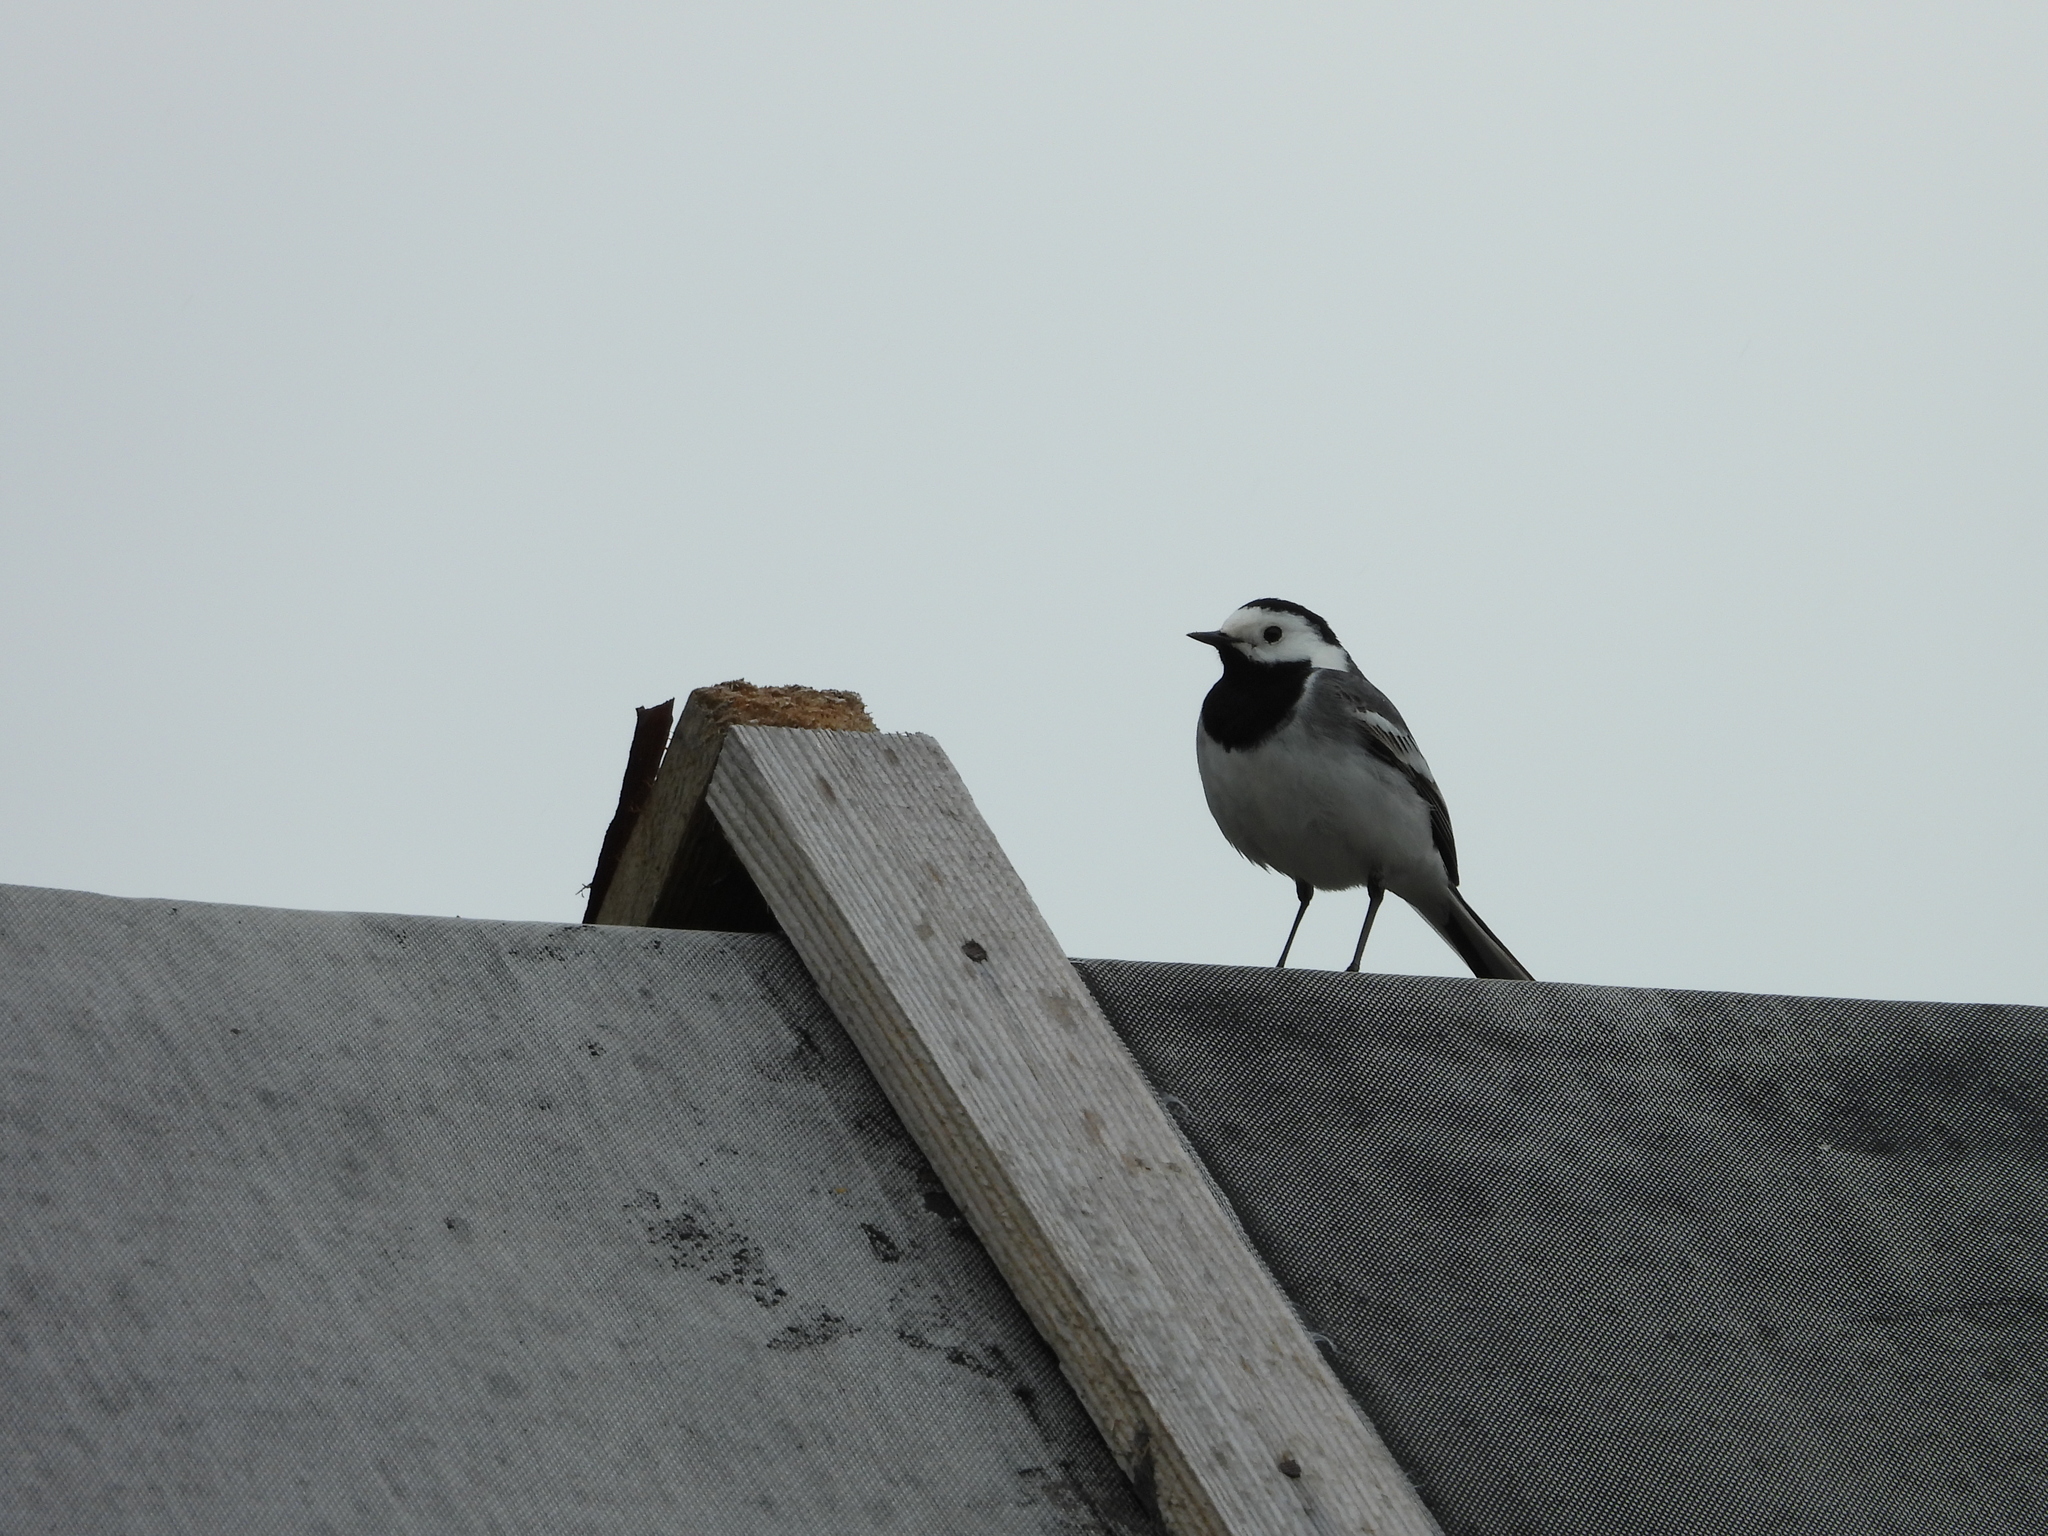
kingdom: Animalia
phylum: Chordata
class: Aves
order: Passeriformes
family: Motacillidae
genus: Motacilla
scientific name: Motacilla alba
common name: White wagtail
